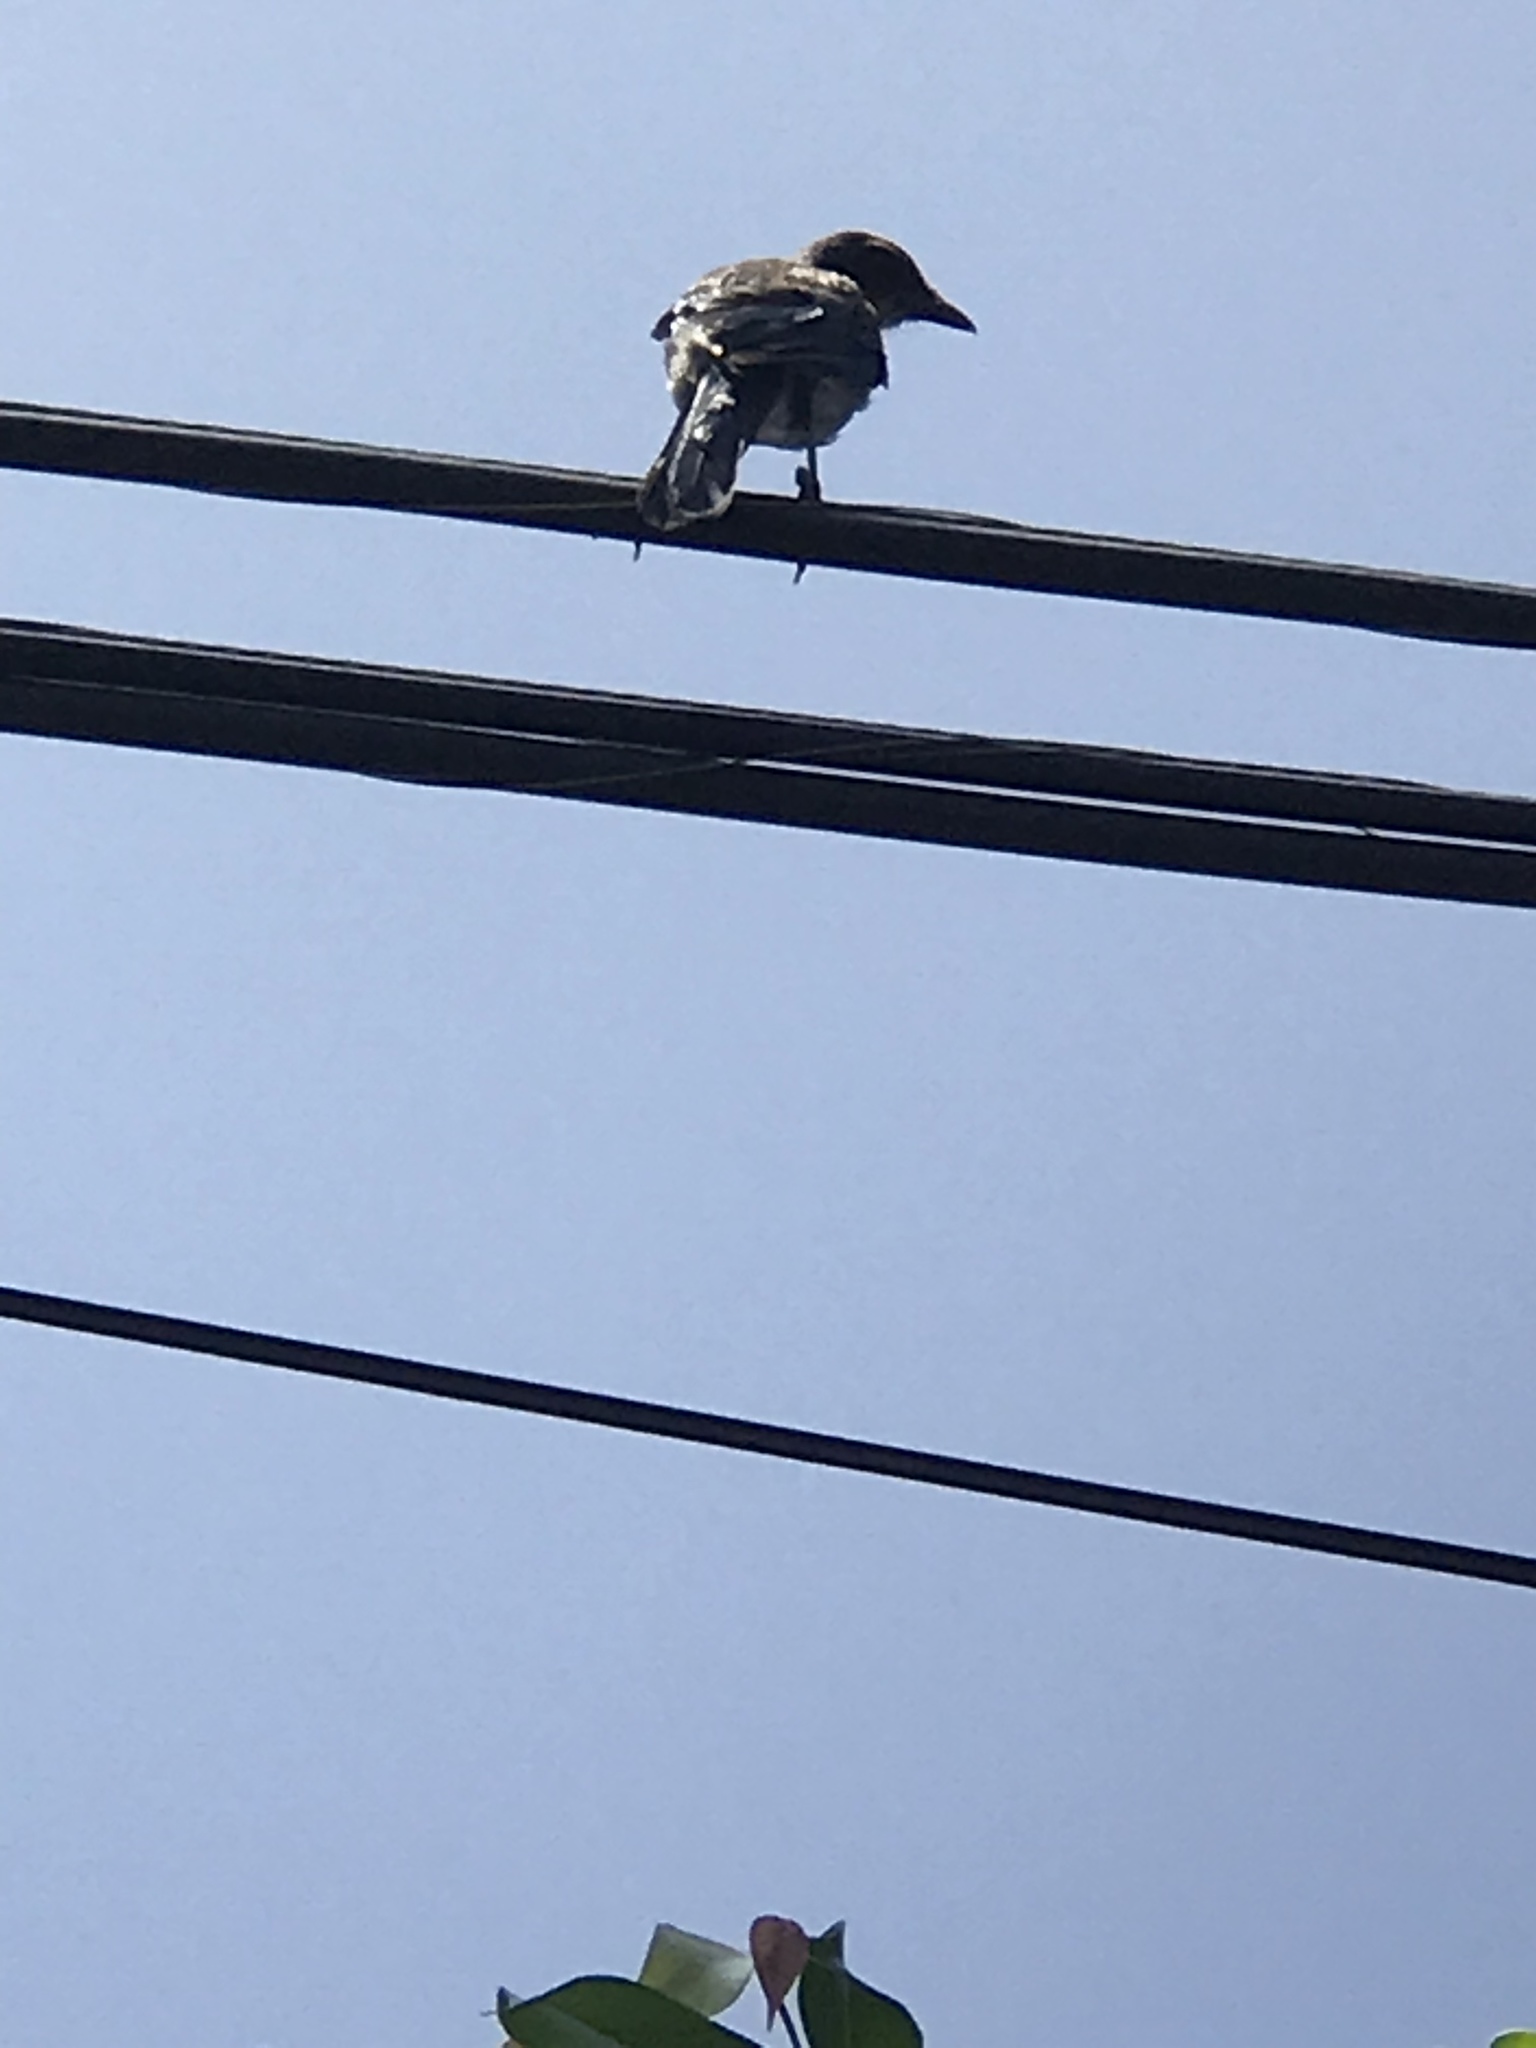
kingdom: Animalia
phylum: Chordata
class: Aves
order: Passeriformes
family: Corvidae
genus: Aphelocoma
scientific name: Aphelocoma californica
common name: California scrub-jay
